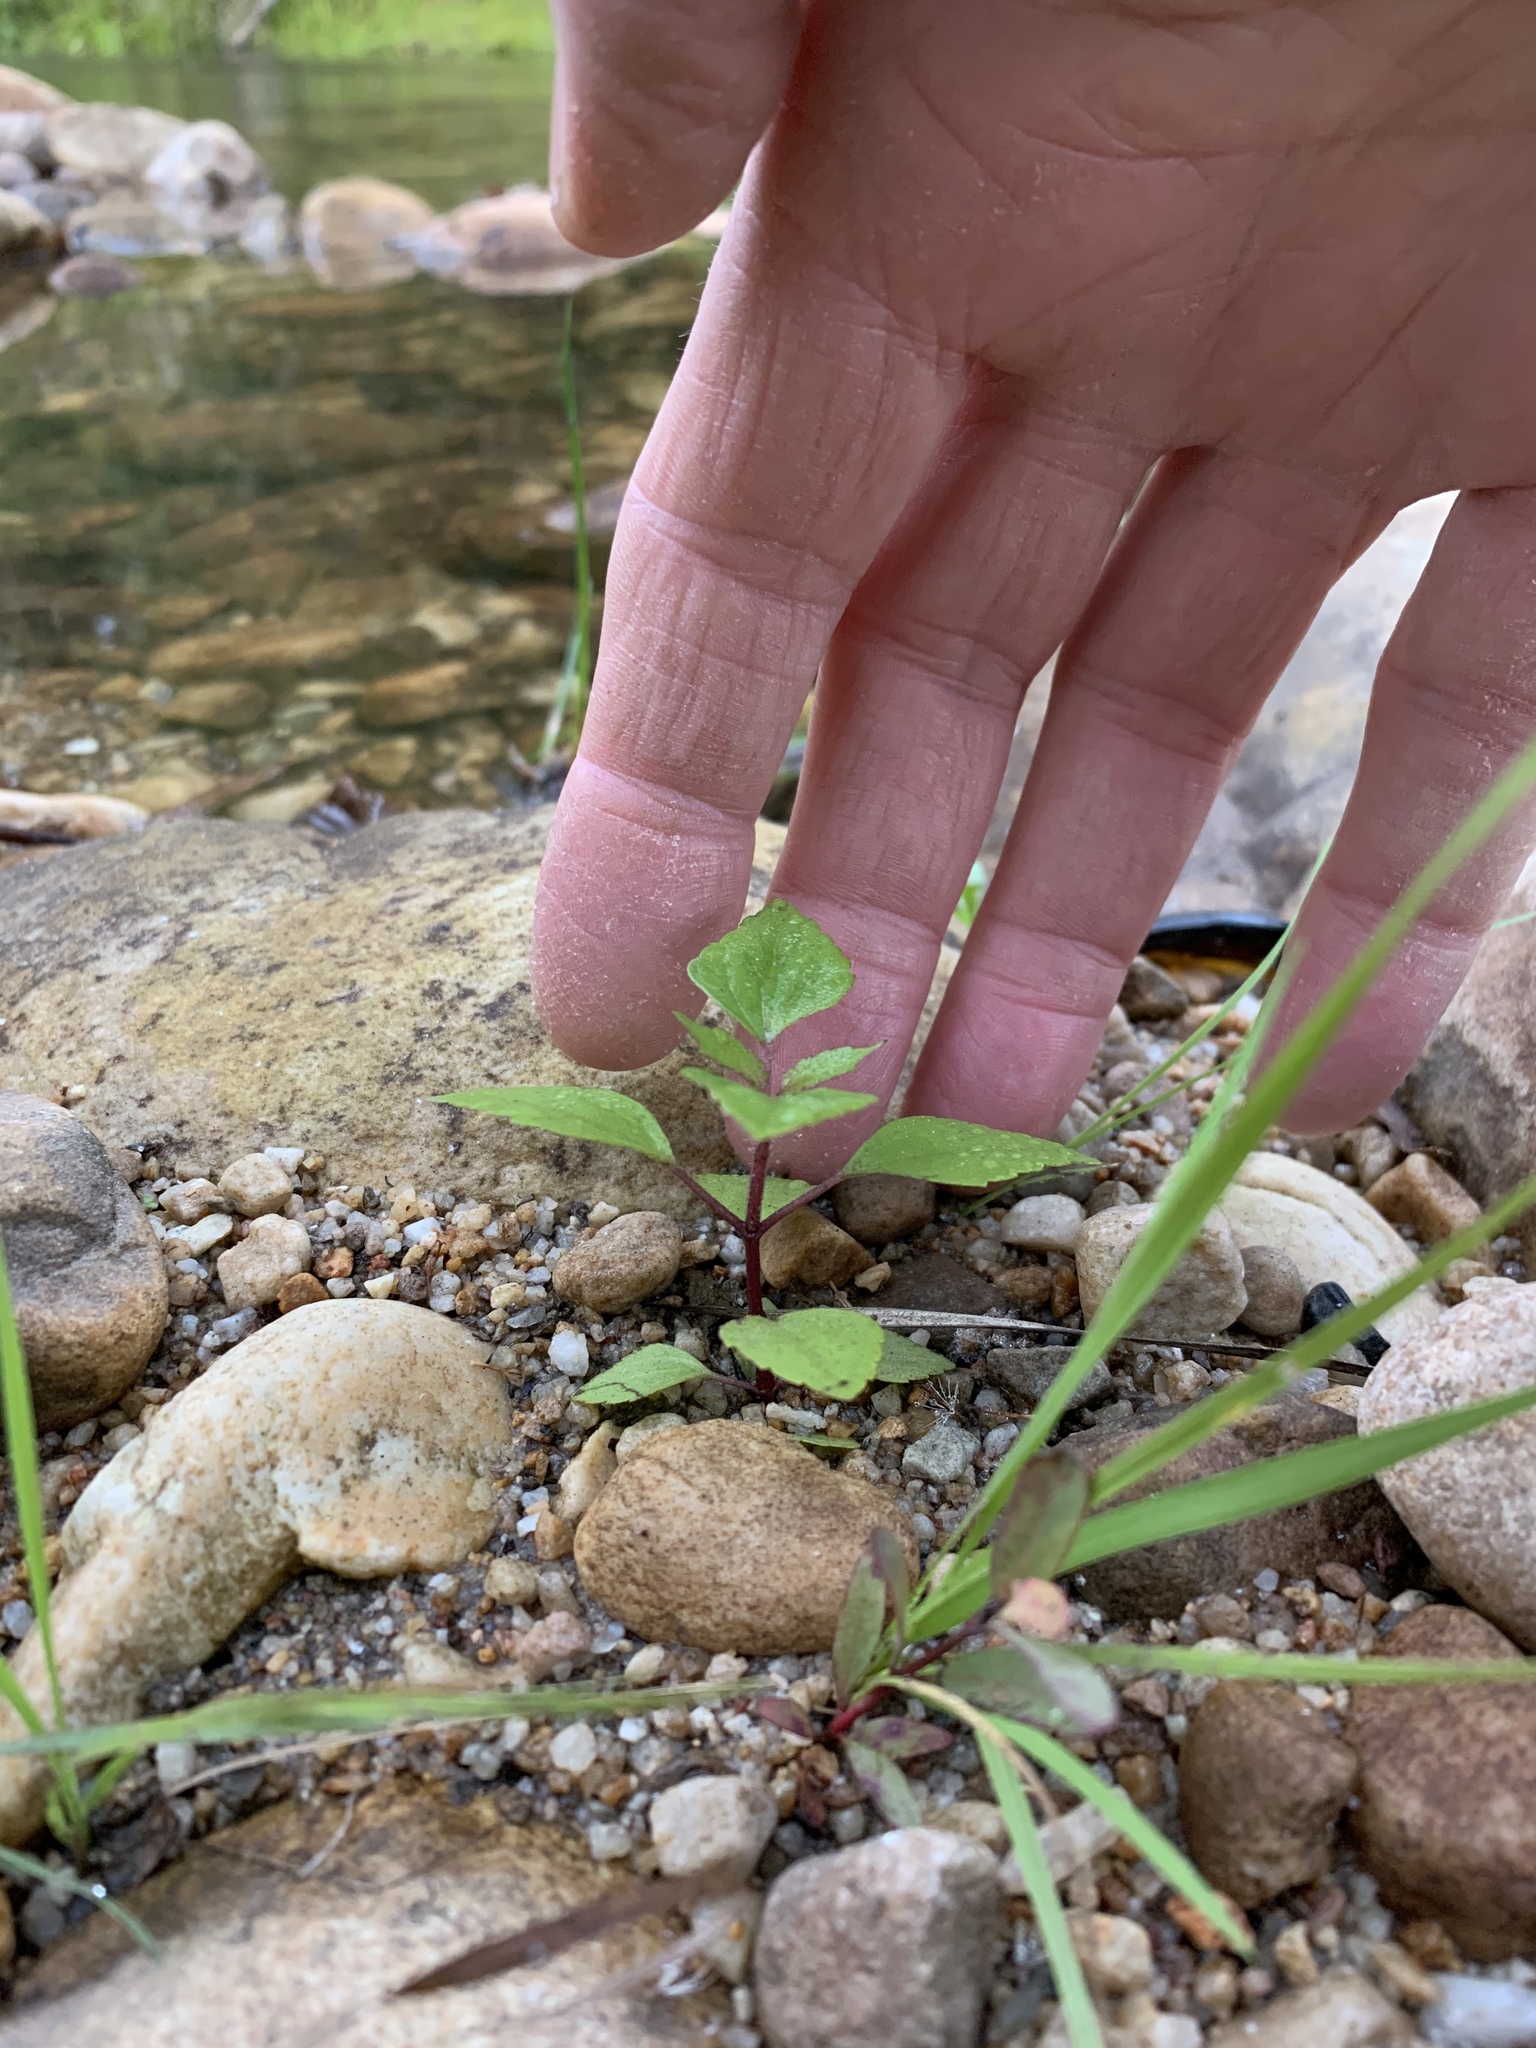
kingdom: Plantae
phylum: Tracheophyta
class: Magnoliopsida
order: Asterales
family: Asteraceae
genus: Ageratina
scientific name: Ageratina adenophora
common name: Sticky snakeroot
